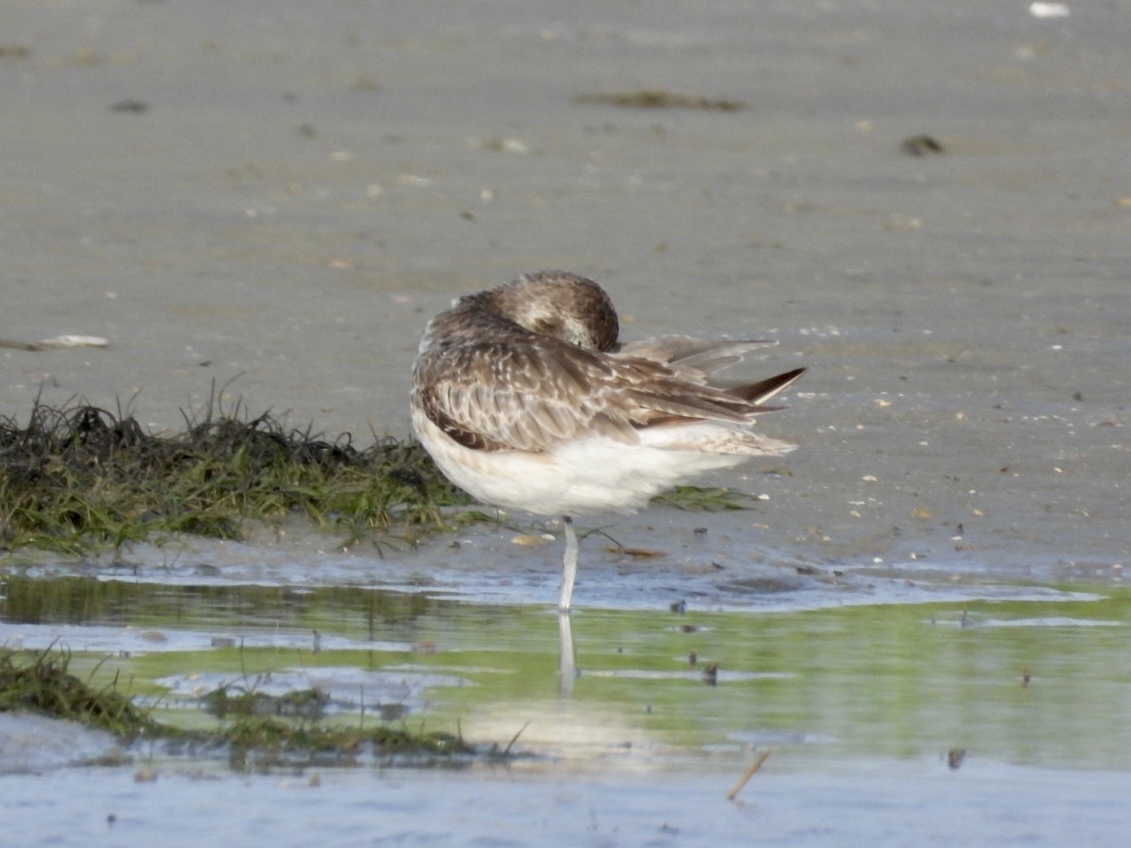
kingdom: Animalia
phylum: Chordata
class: Aves
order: Charadriiformes
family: Charadriidae
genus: Pluvialis
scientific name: Pluvialis squatarola
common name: Grey plover
